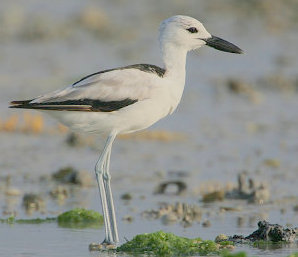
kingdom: Animalia
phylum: Chordata
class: Aves
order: Charadriiformes
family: Dromadidae
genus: Dromas
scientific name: Dromas ardeola
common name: Crab-plover
